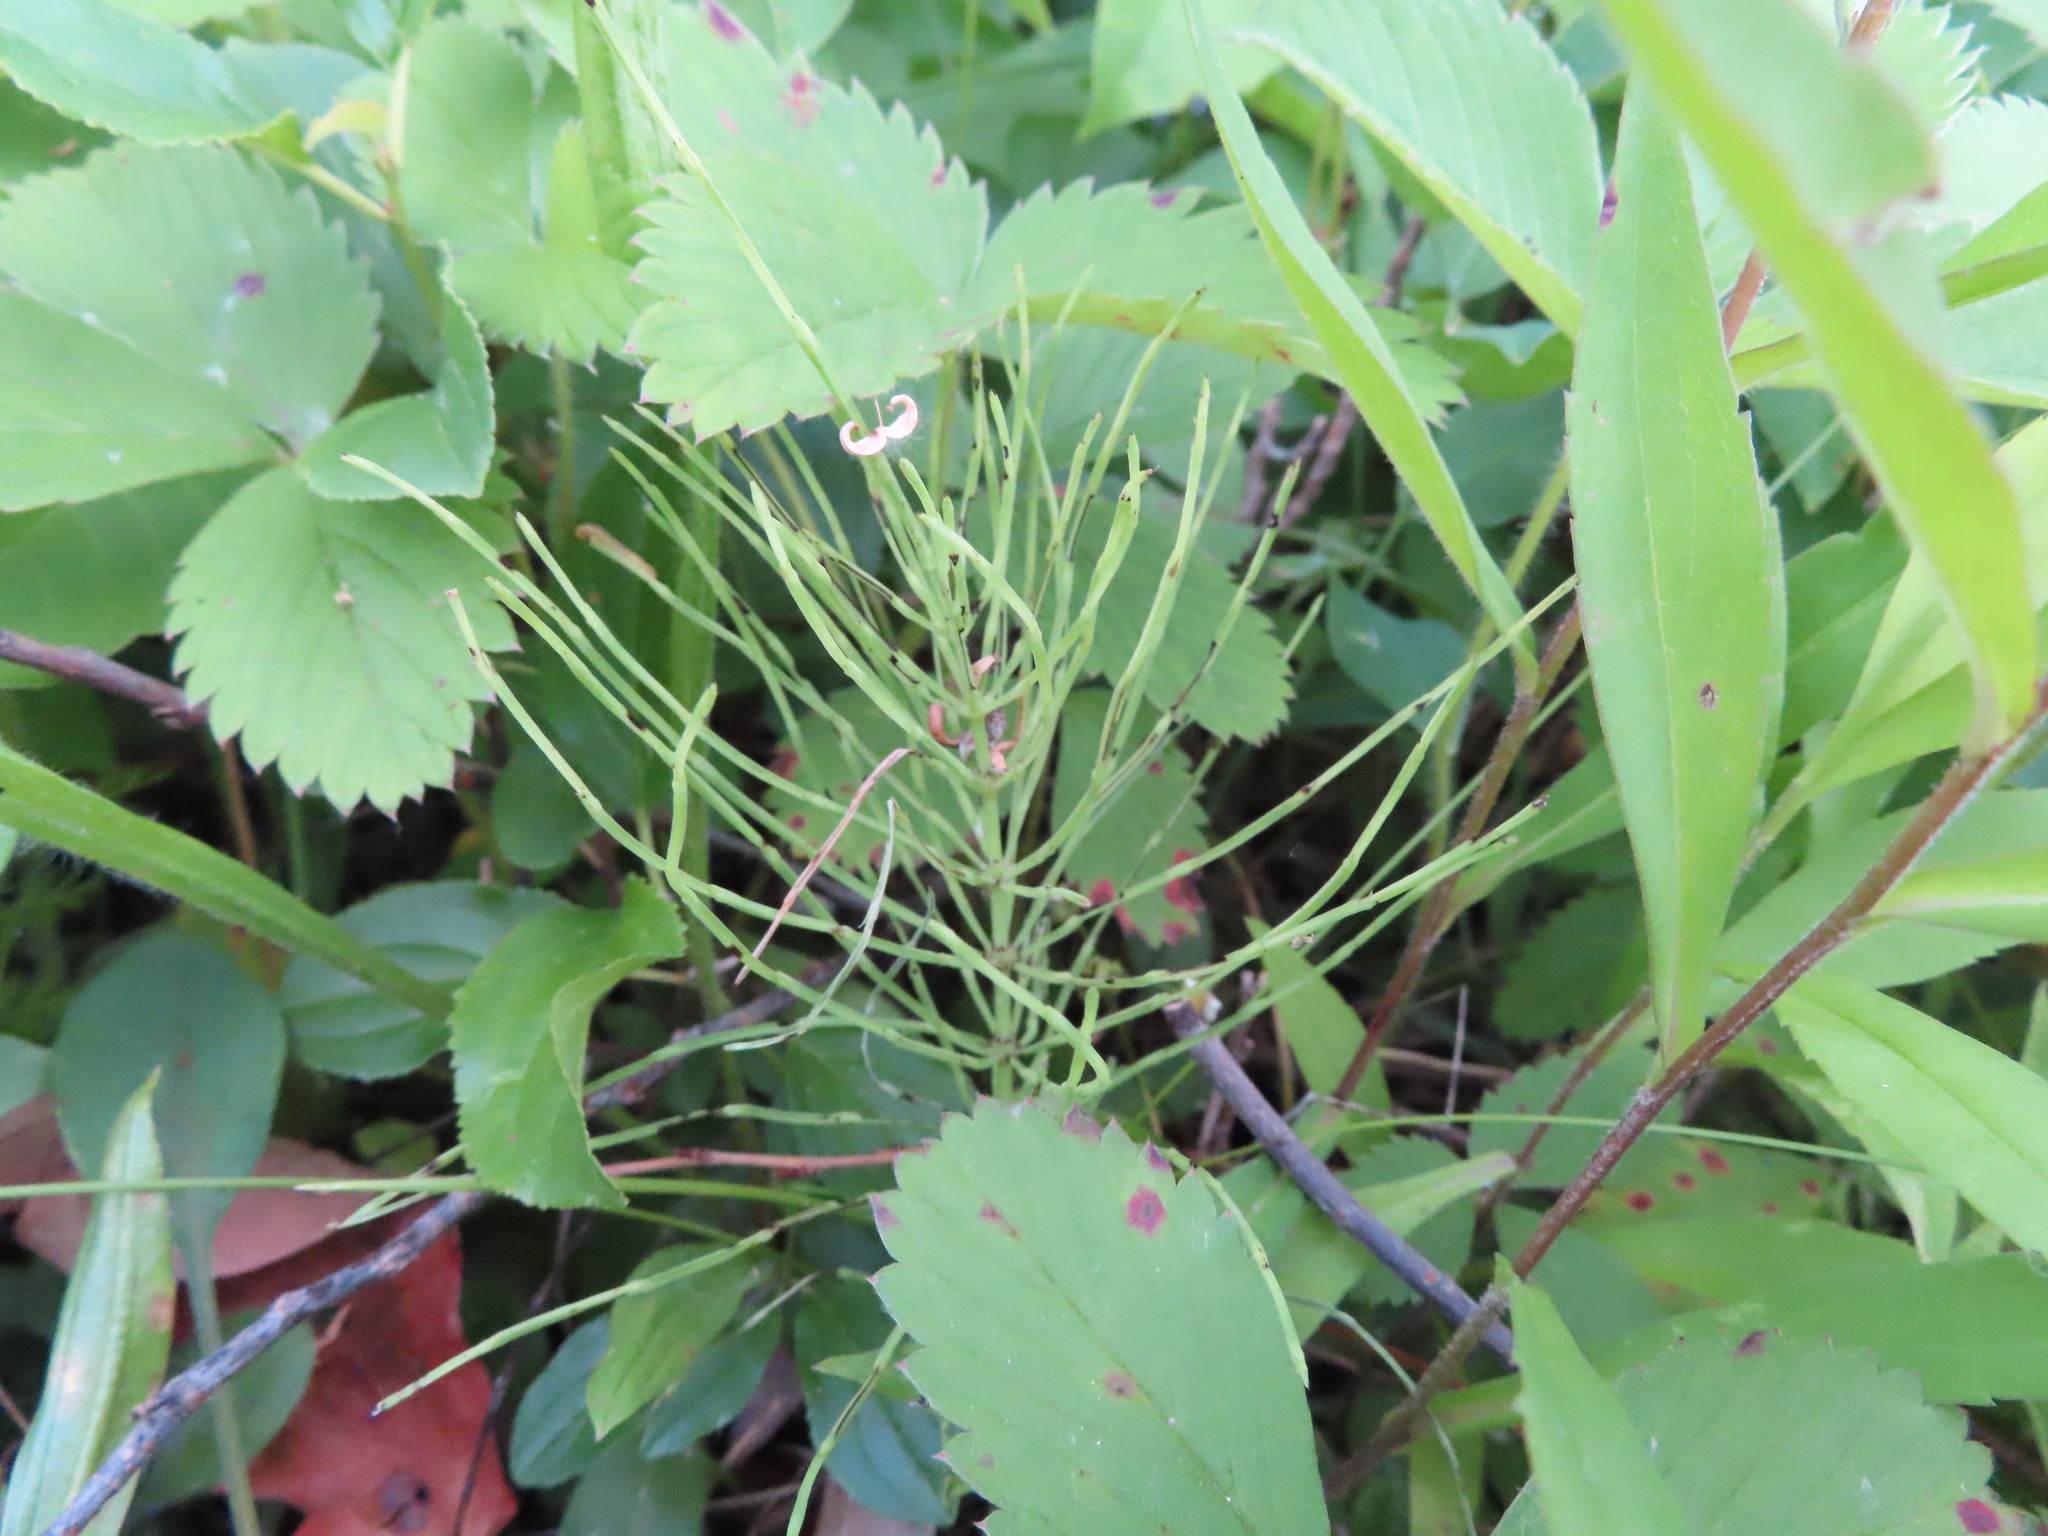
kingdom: Plantae
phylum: Tracheophyta
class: Polypodiopsida
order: Equisetales
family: Equisetaceae
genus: Equisetum
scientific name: Equisetum arvense
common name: Field horsetail
